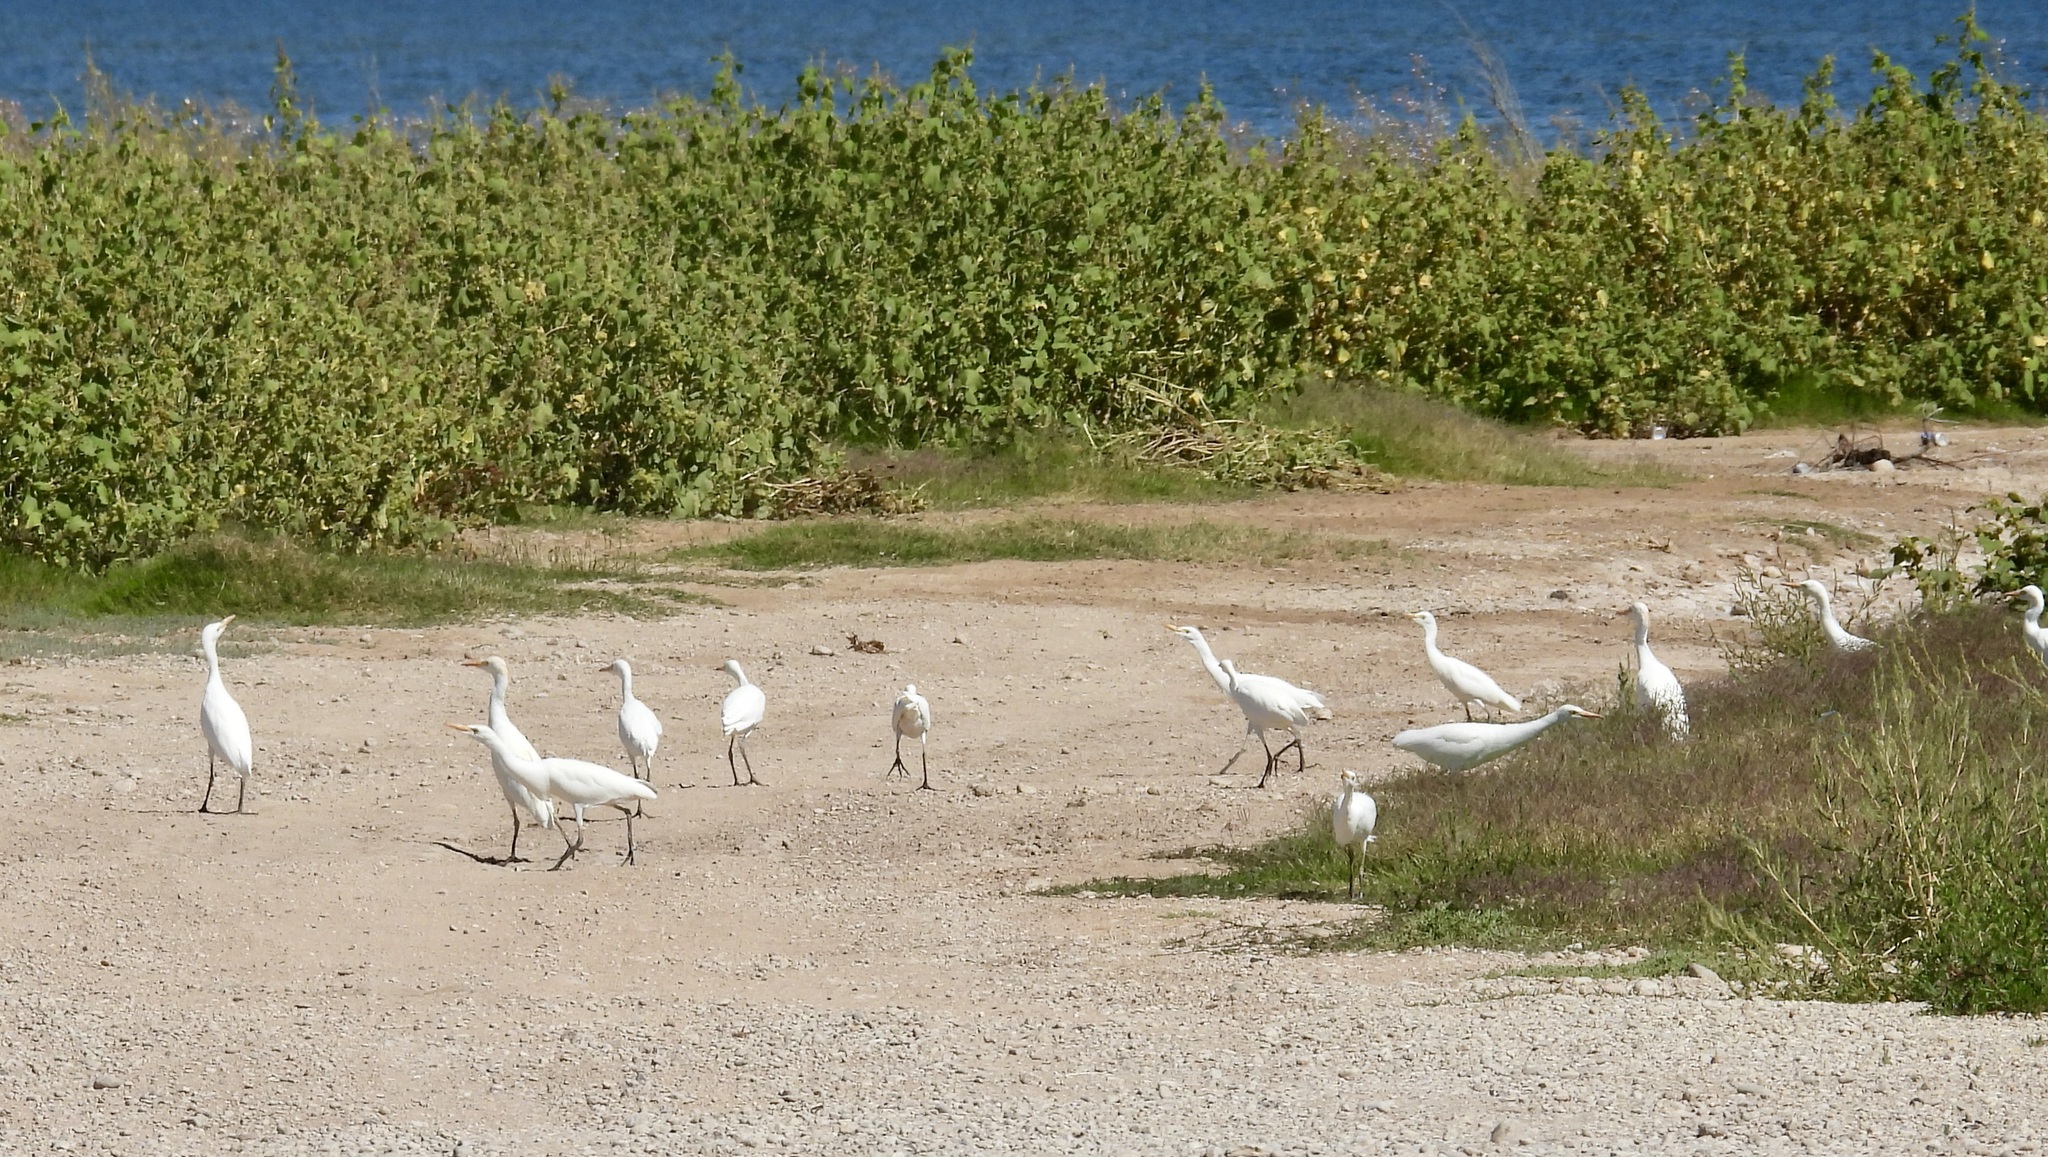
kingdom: Animalia
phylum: Chordata
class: Aves
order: Pelecaniformes
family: Ardeidae
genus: Bubulcus
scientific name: Bubulcus ibis
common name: Cattle egret
